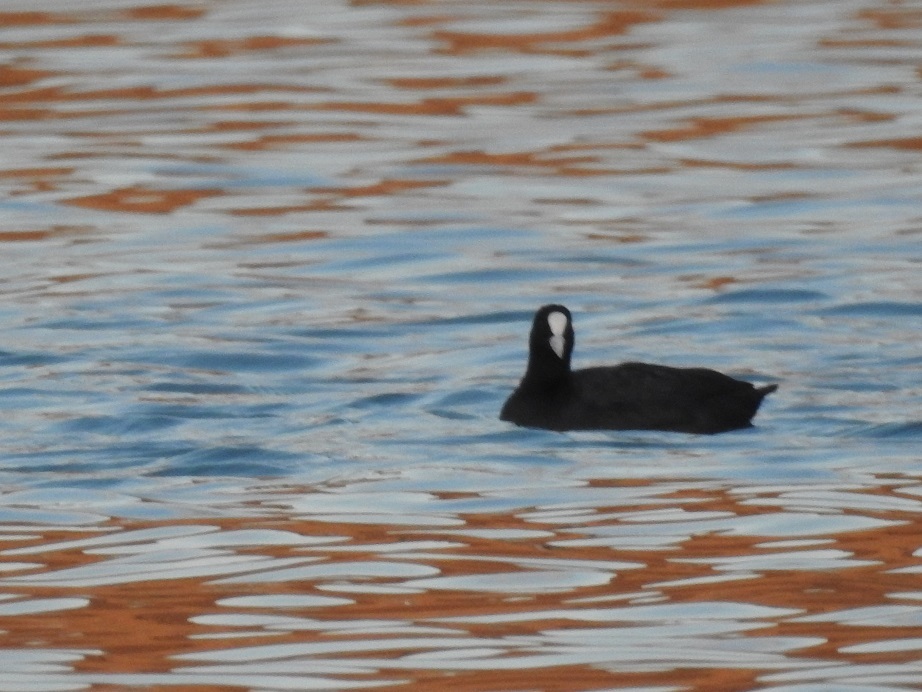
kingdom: Animalia
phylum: Chordata
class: Aves
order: Gruiformes
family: Rallidae
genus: Fulica
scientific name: Fulica atra
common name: Eurasian coot
